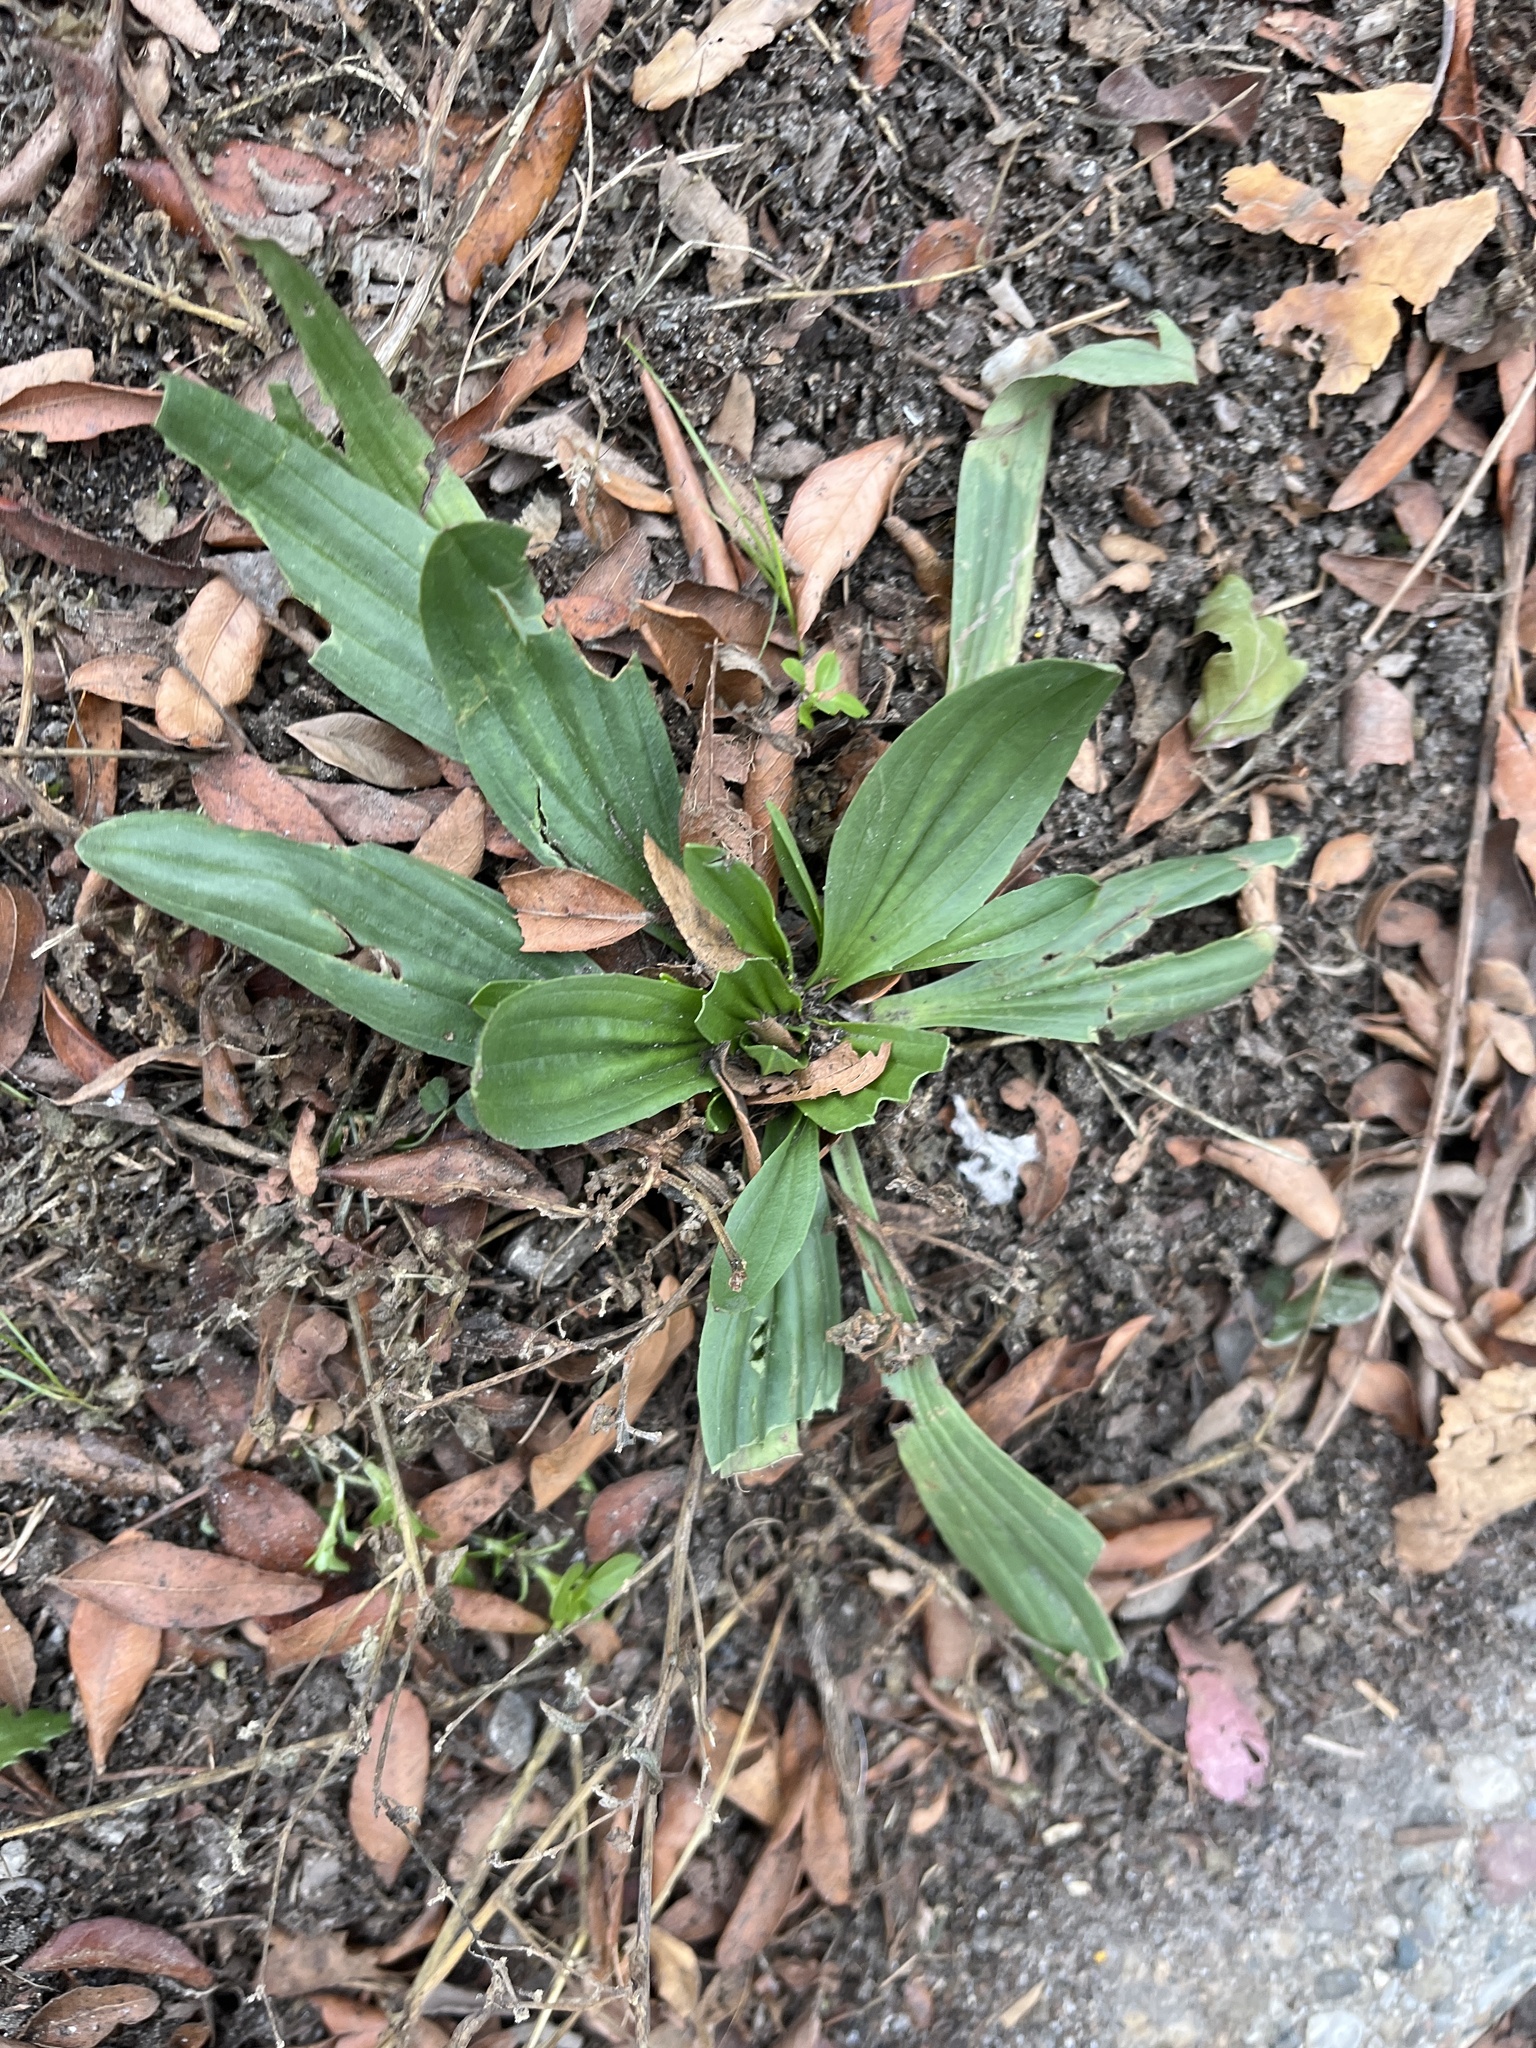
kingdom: Plantae
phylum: Tracheophyta
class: Magnoliopsida
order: Lamiales
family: Plantaginaceae
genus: Plantago
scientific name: Plantago lanceolata
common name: Ribwort plantain
